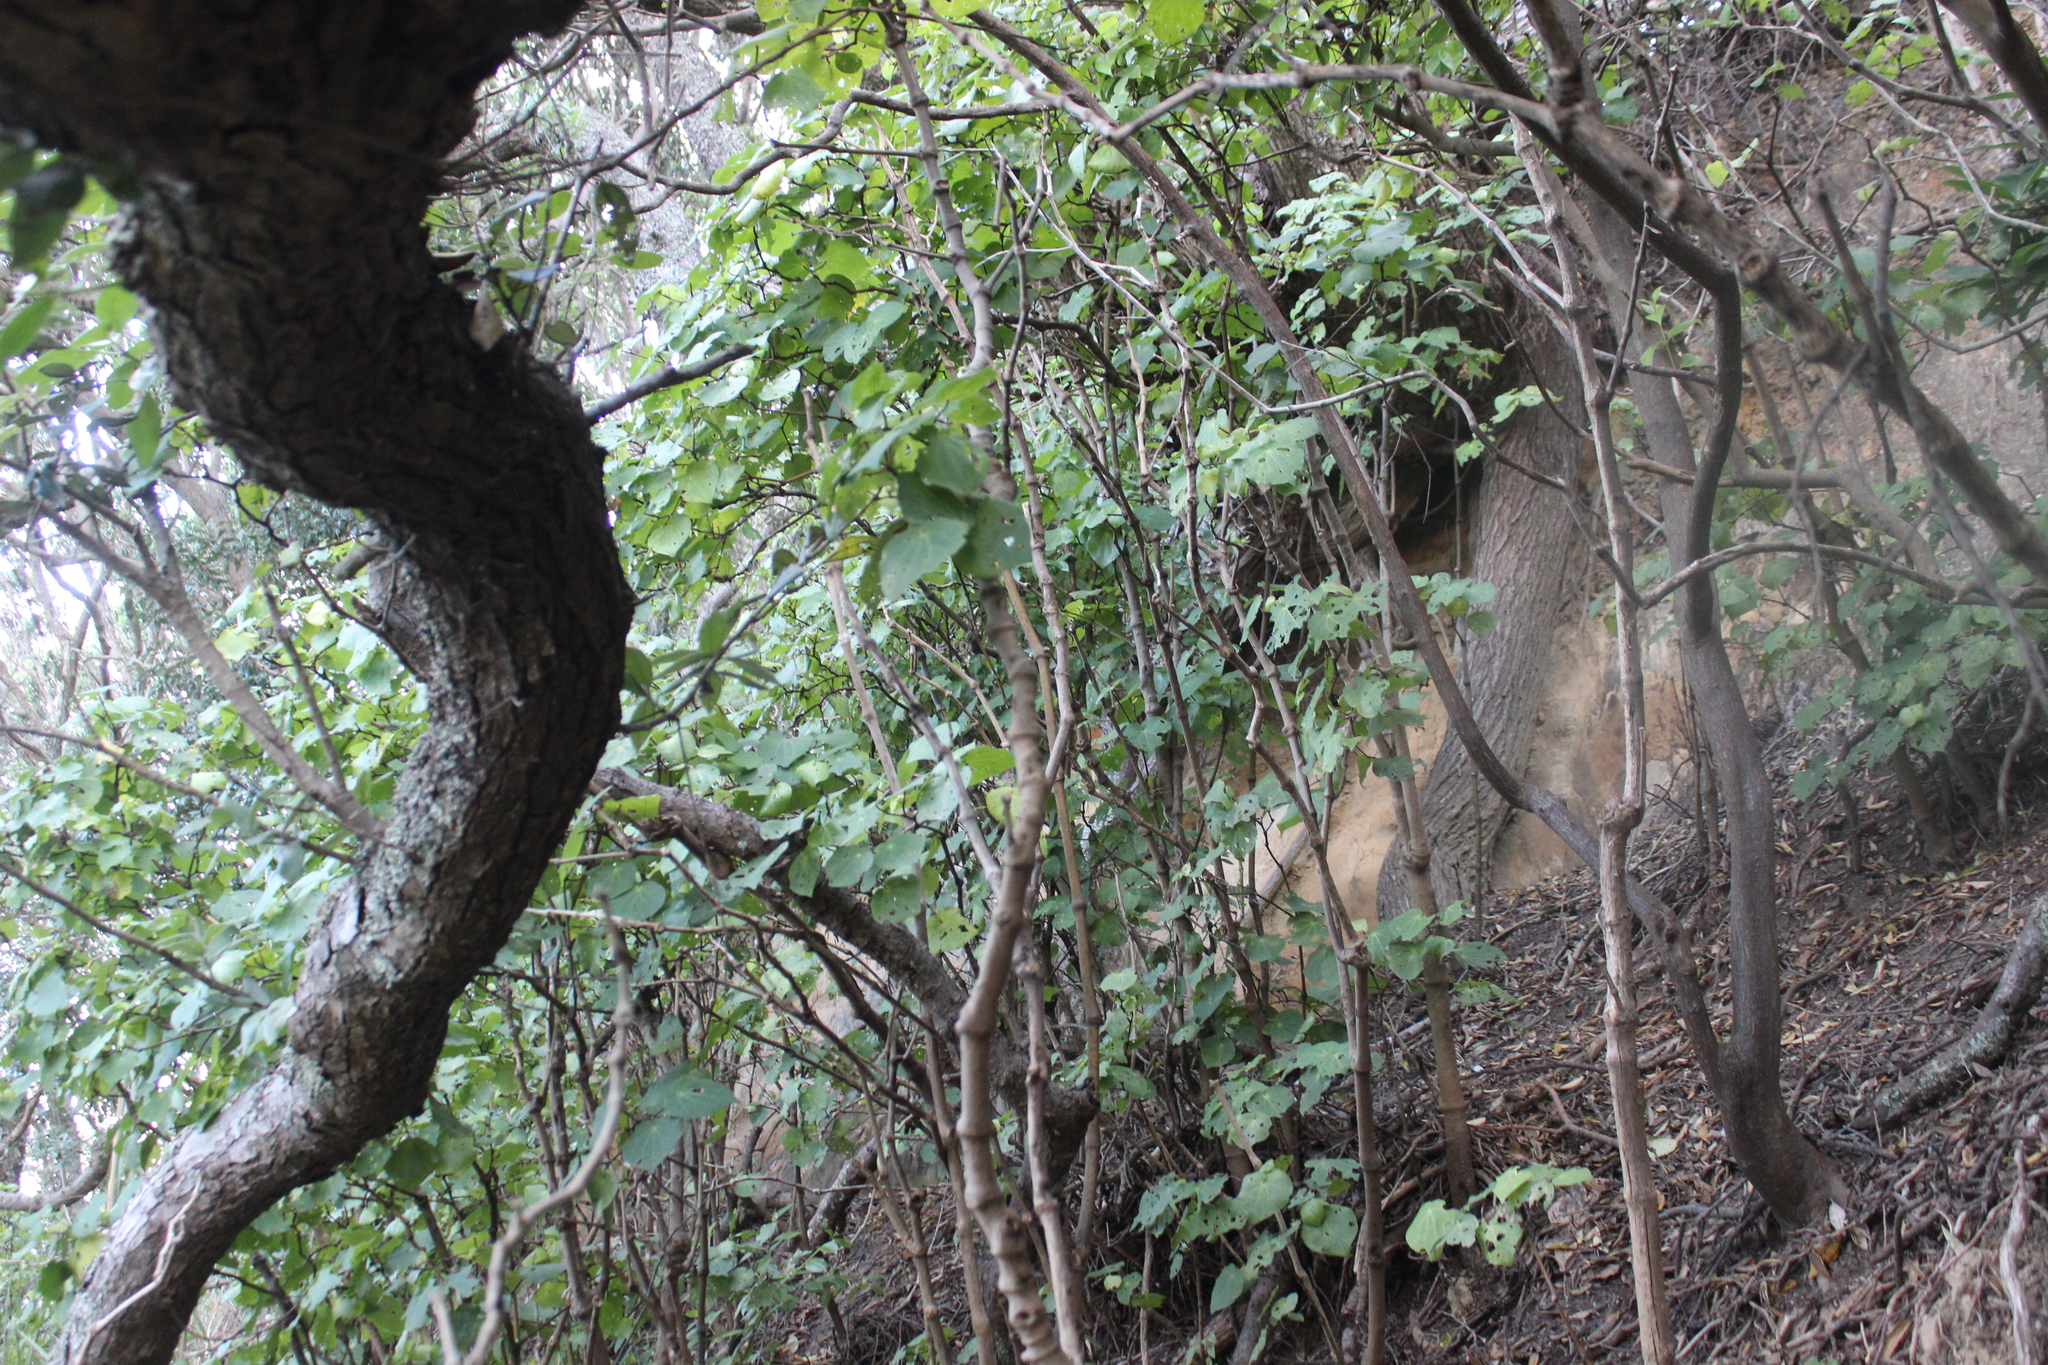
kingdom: Plantae
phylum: Tracheophyta
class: Magnoliopsida
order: Piperales
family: Piperaceae
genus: Macropiper
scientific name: Macropiper excelsum
